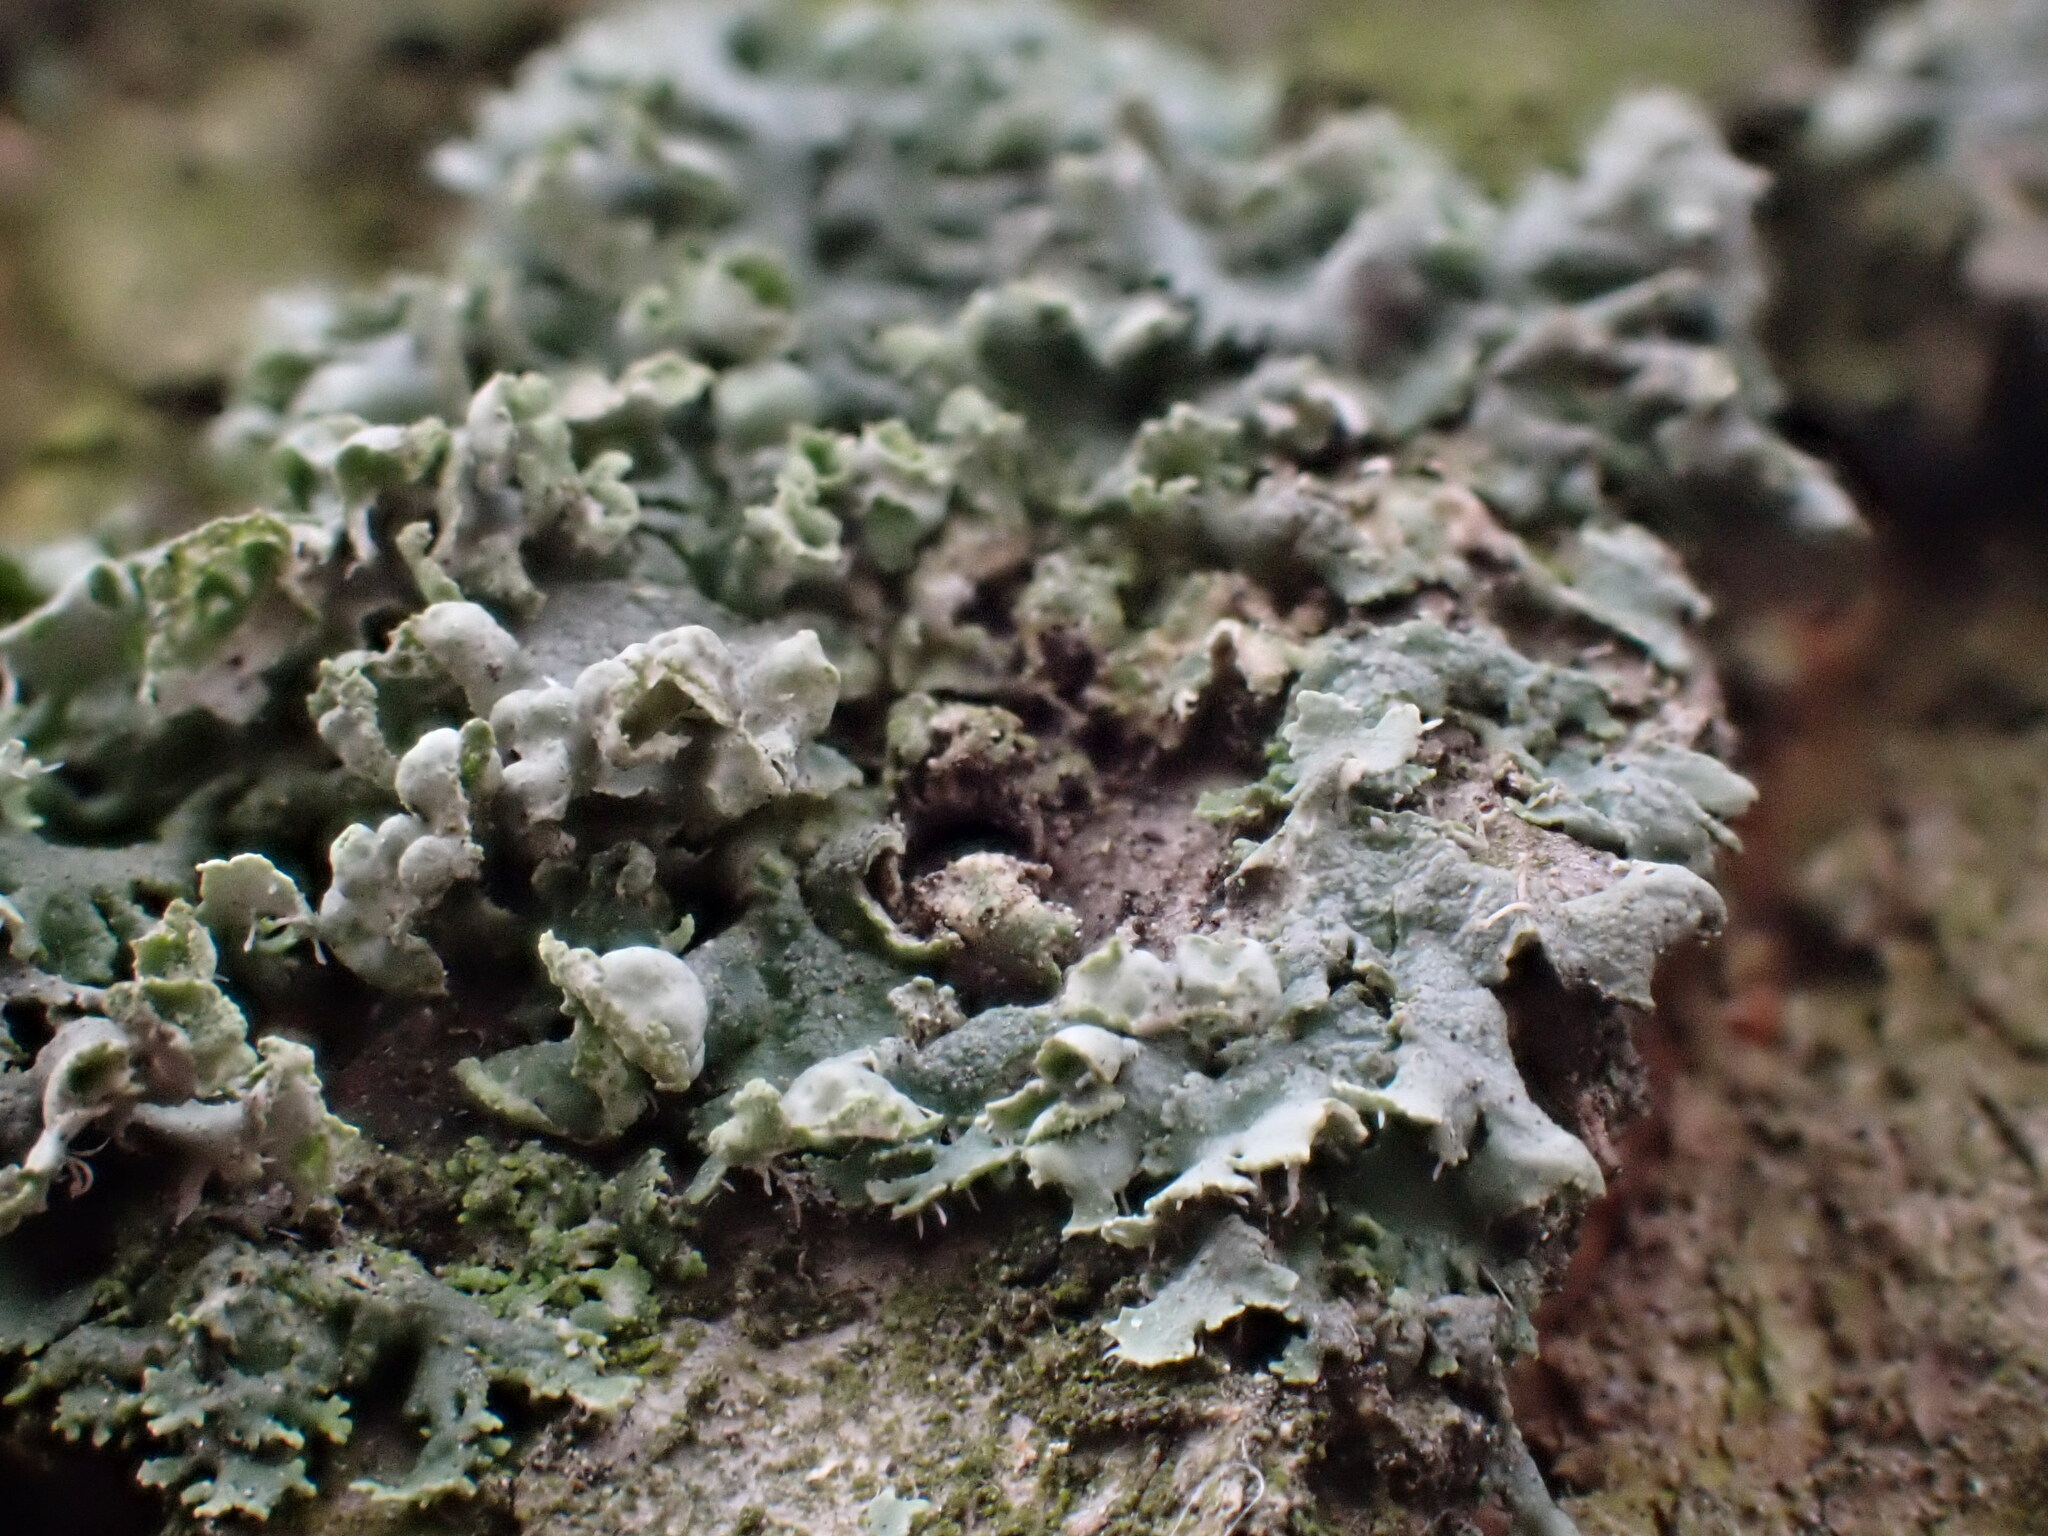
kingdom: Fungi
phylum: Ascomycota
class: Lecanoromycetes
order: Caliciales
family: Physciaceae
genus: Physcia
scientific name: Physcia adscendens
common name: Hooded rosette lichen
